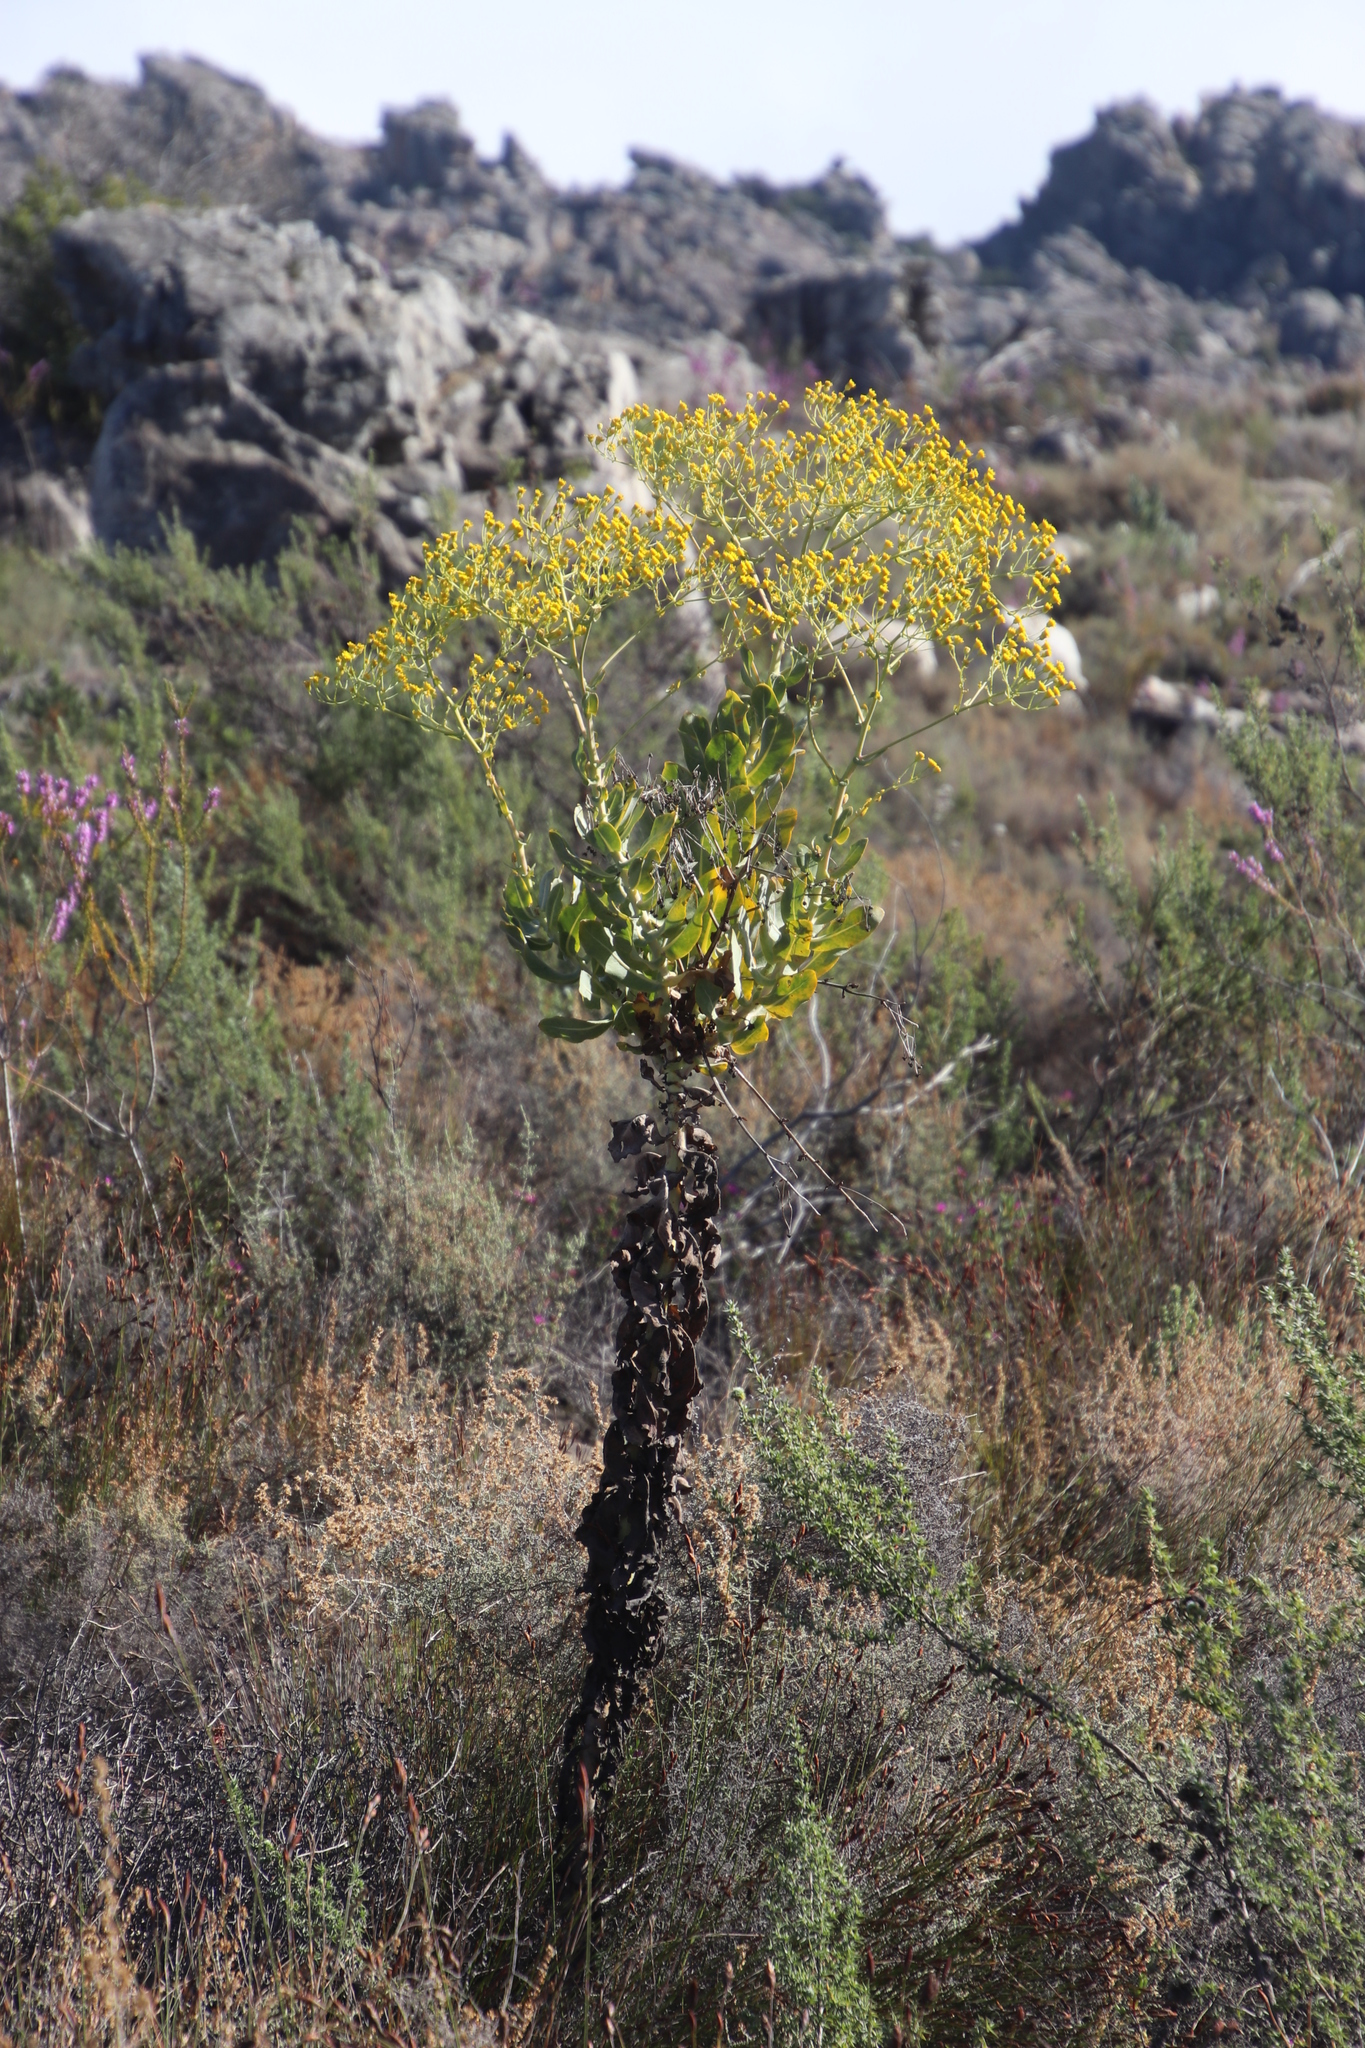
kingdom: Plantae
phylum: Tracheophyta
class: Magnoliopsida
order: Asterales
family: Asteraceae
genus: Othonna
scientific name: Othonna parviflora
